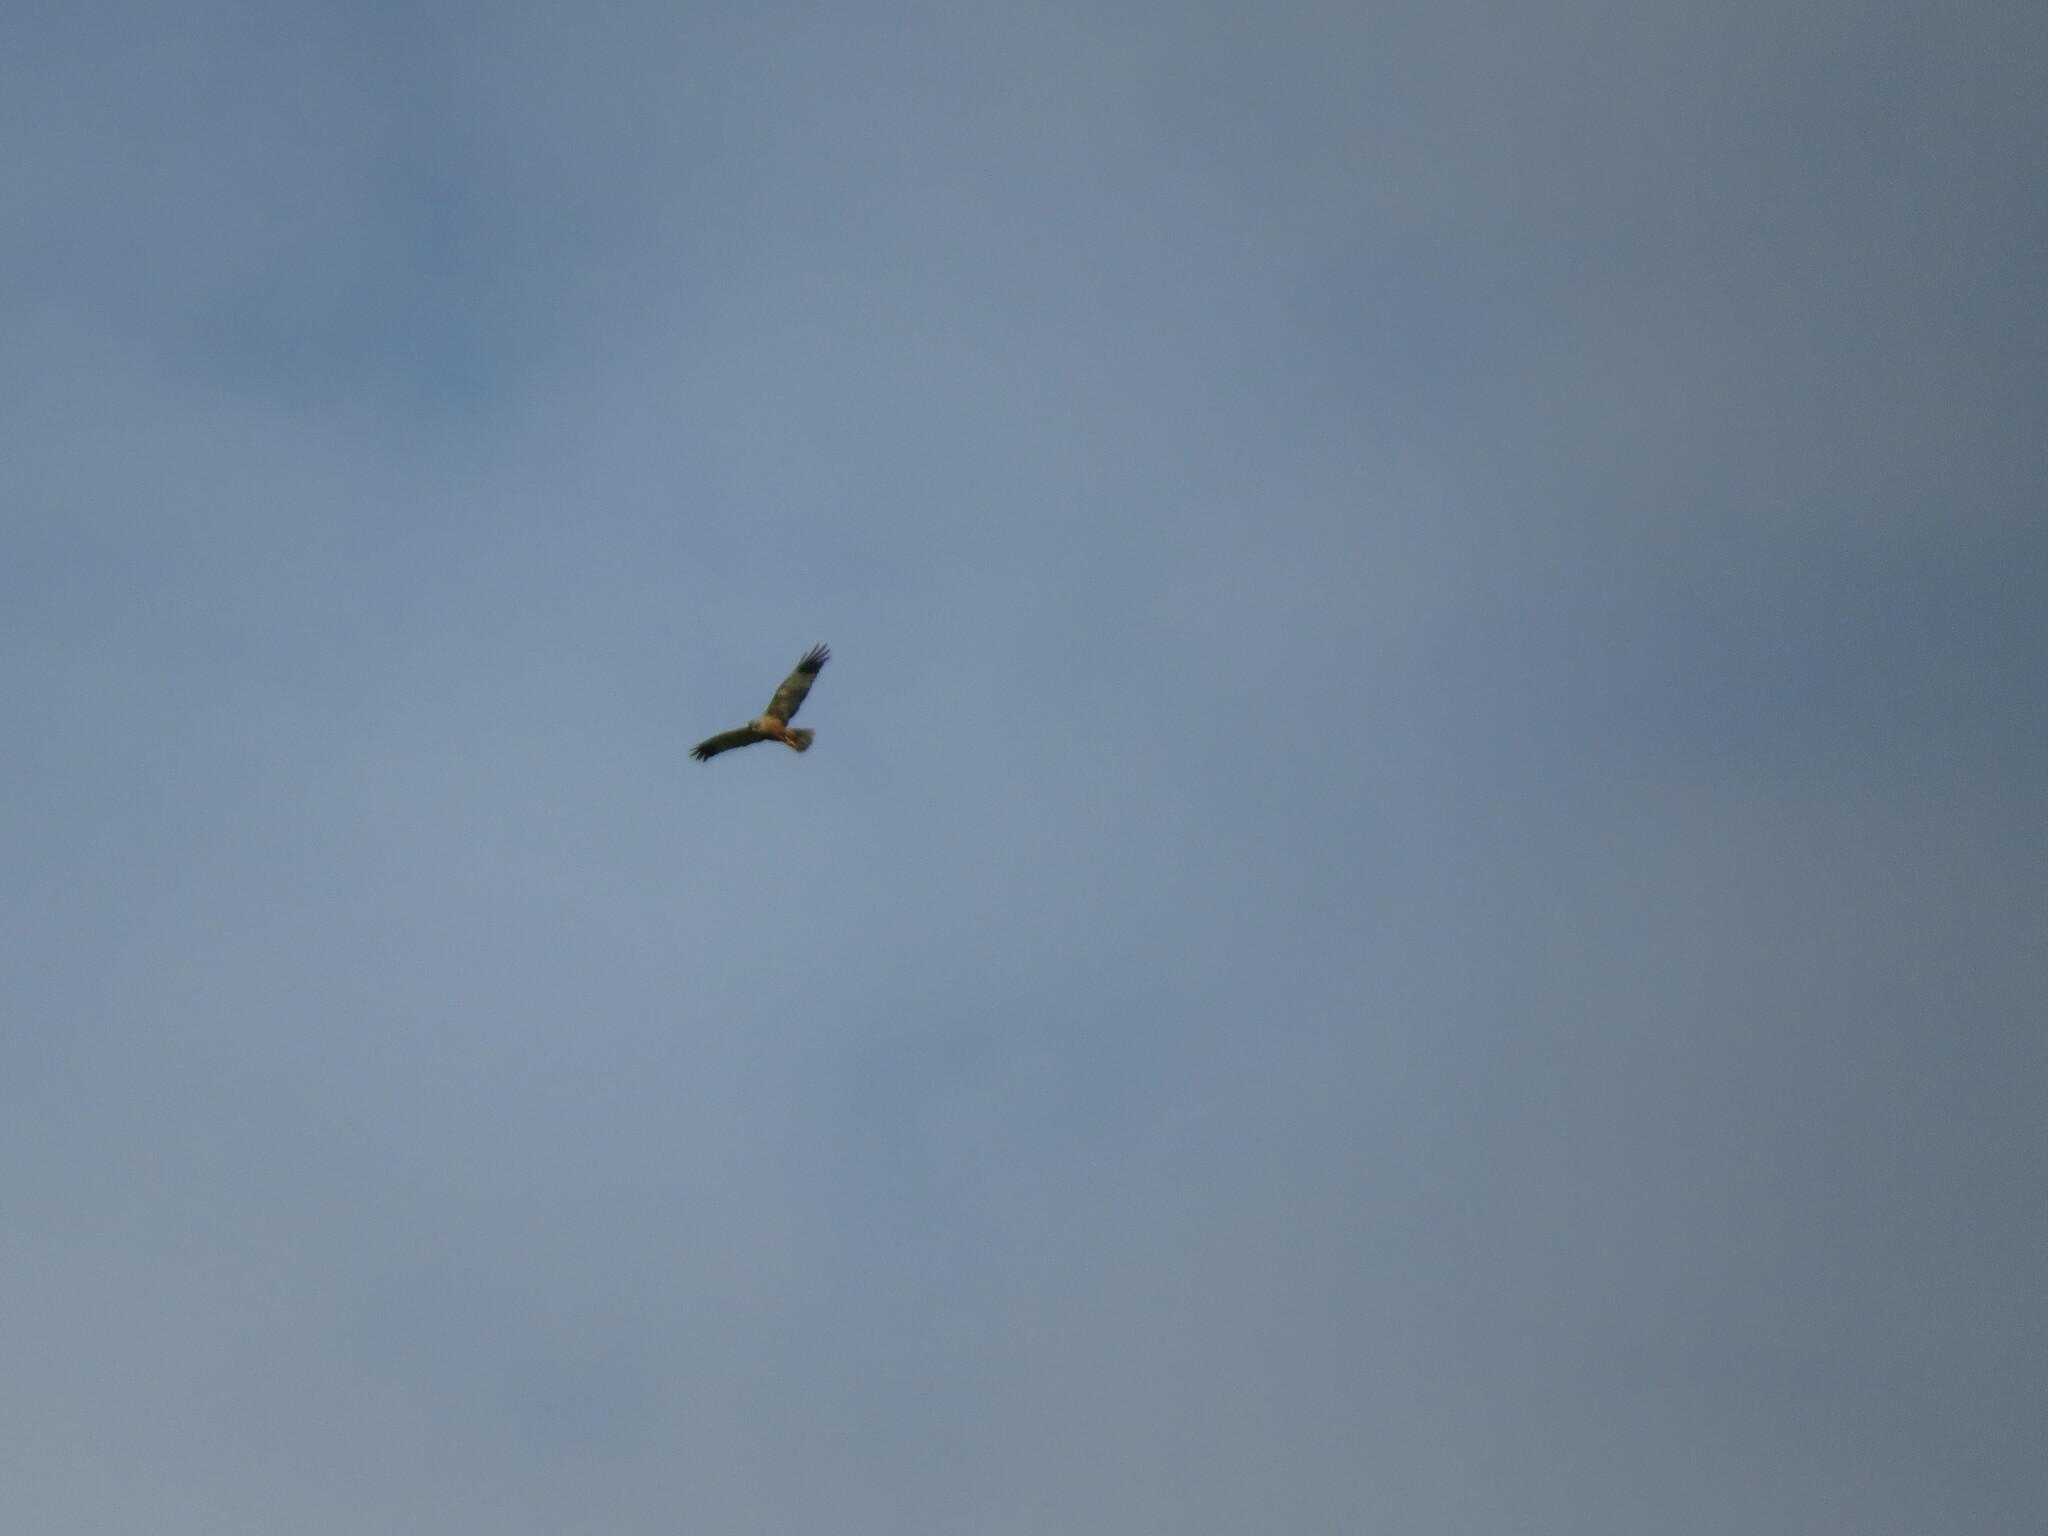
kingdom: Animalia
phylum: Chordata
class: Aves
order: Accipitriformes
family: Accipitridae
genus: Circus
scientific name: Circus aeruginosus
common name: Western marsh harrier
